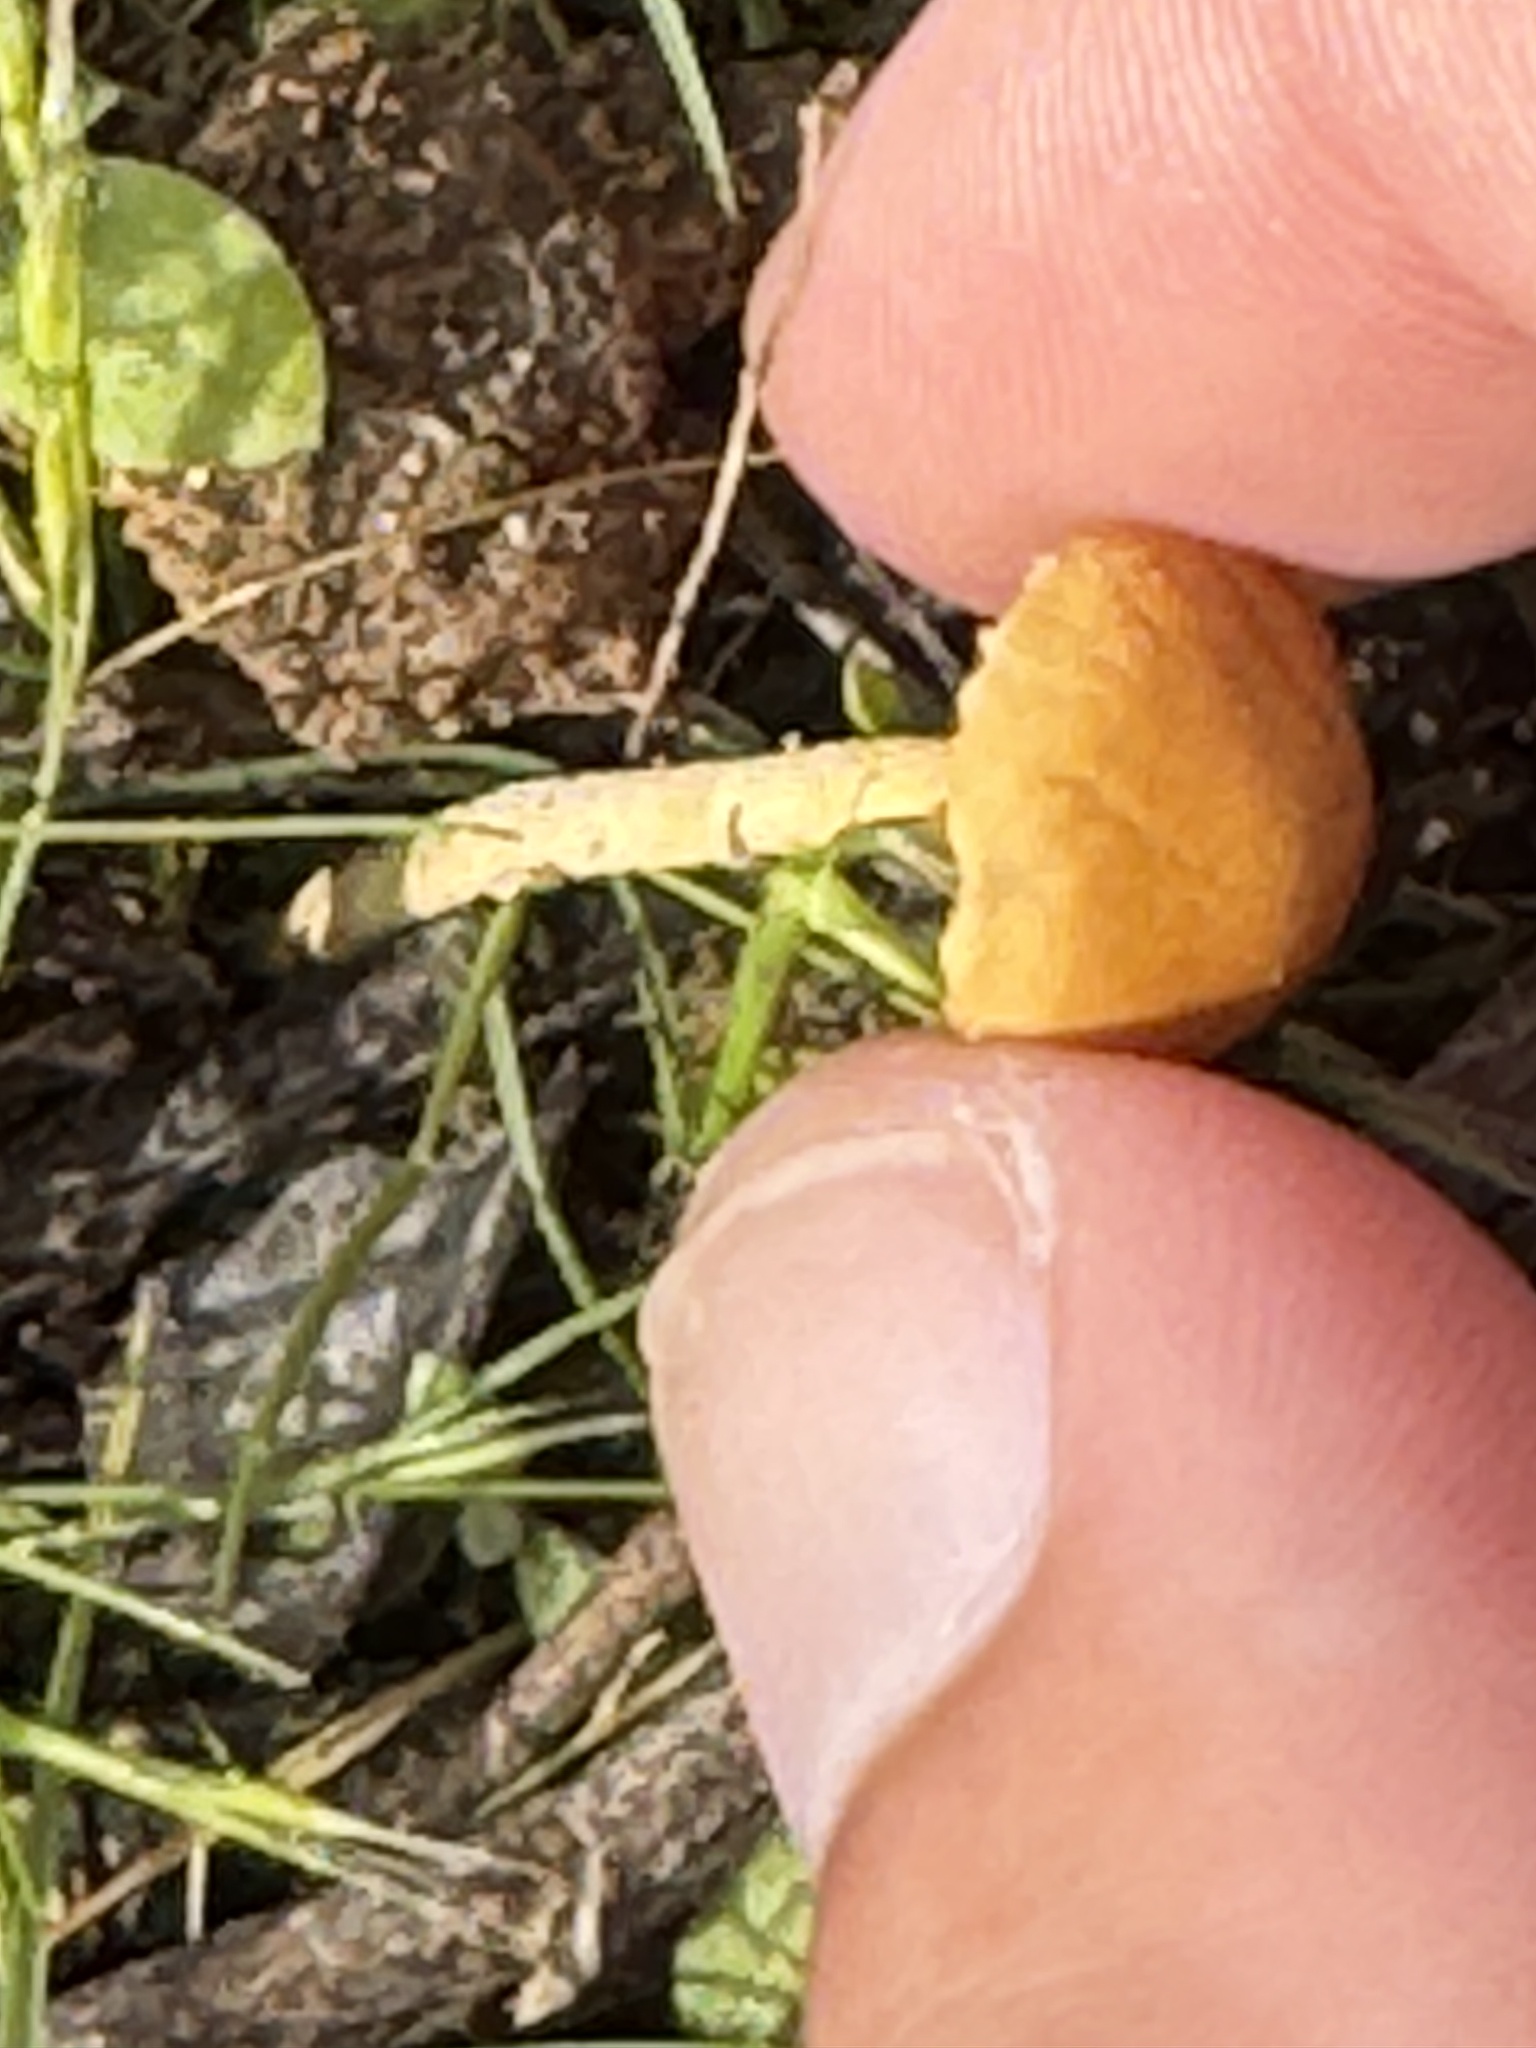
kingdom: Fungi
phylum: Basidiomycota
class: Agaricomycetes
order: Agaricales
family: Strophariaceae
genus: Agrocybe
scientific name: Agrocybe pediades
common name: Common fieldcap
